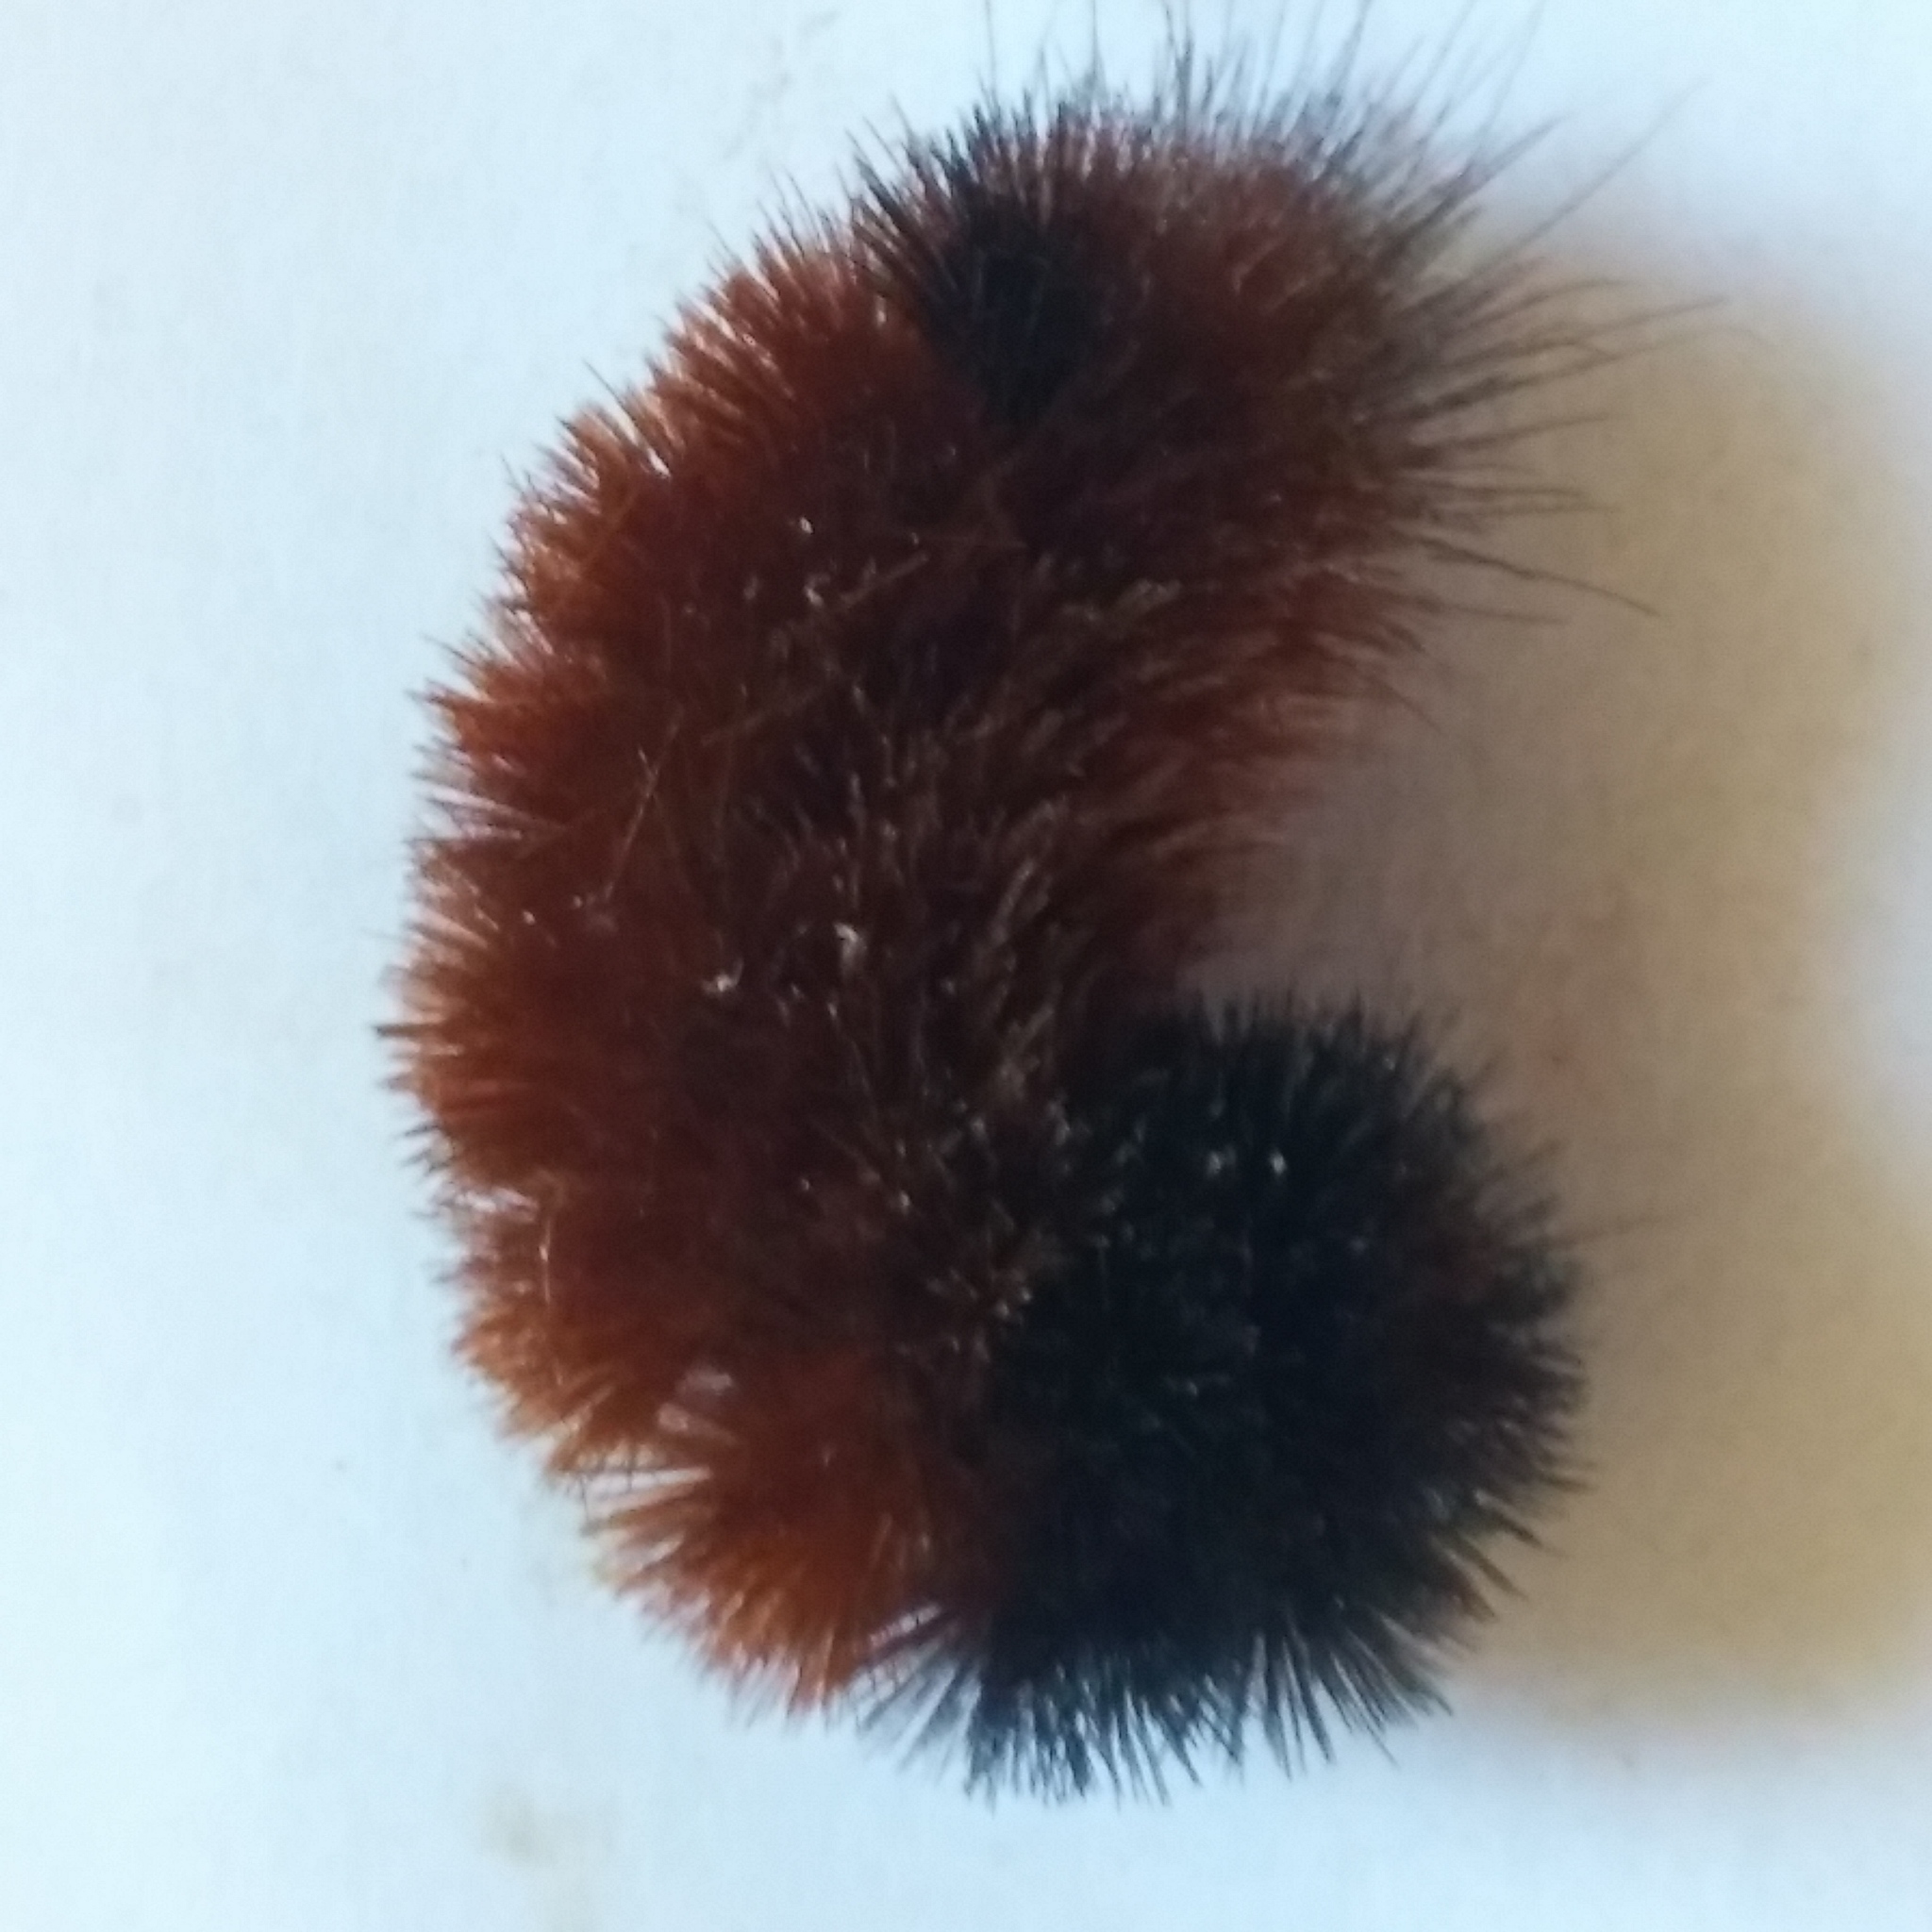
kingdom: Animalia
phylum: Arthropoda
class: Insecta
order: Lepidoptera
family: Erebidae
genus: Pyrrharctia
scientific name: Pyrrharctia isabella
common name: Isabella tiger moth
